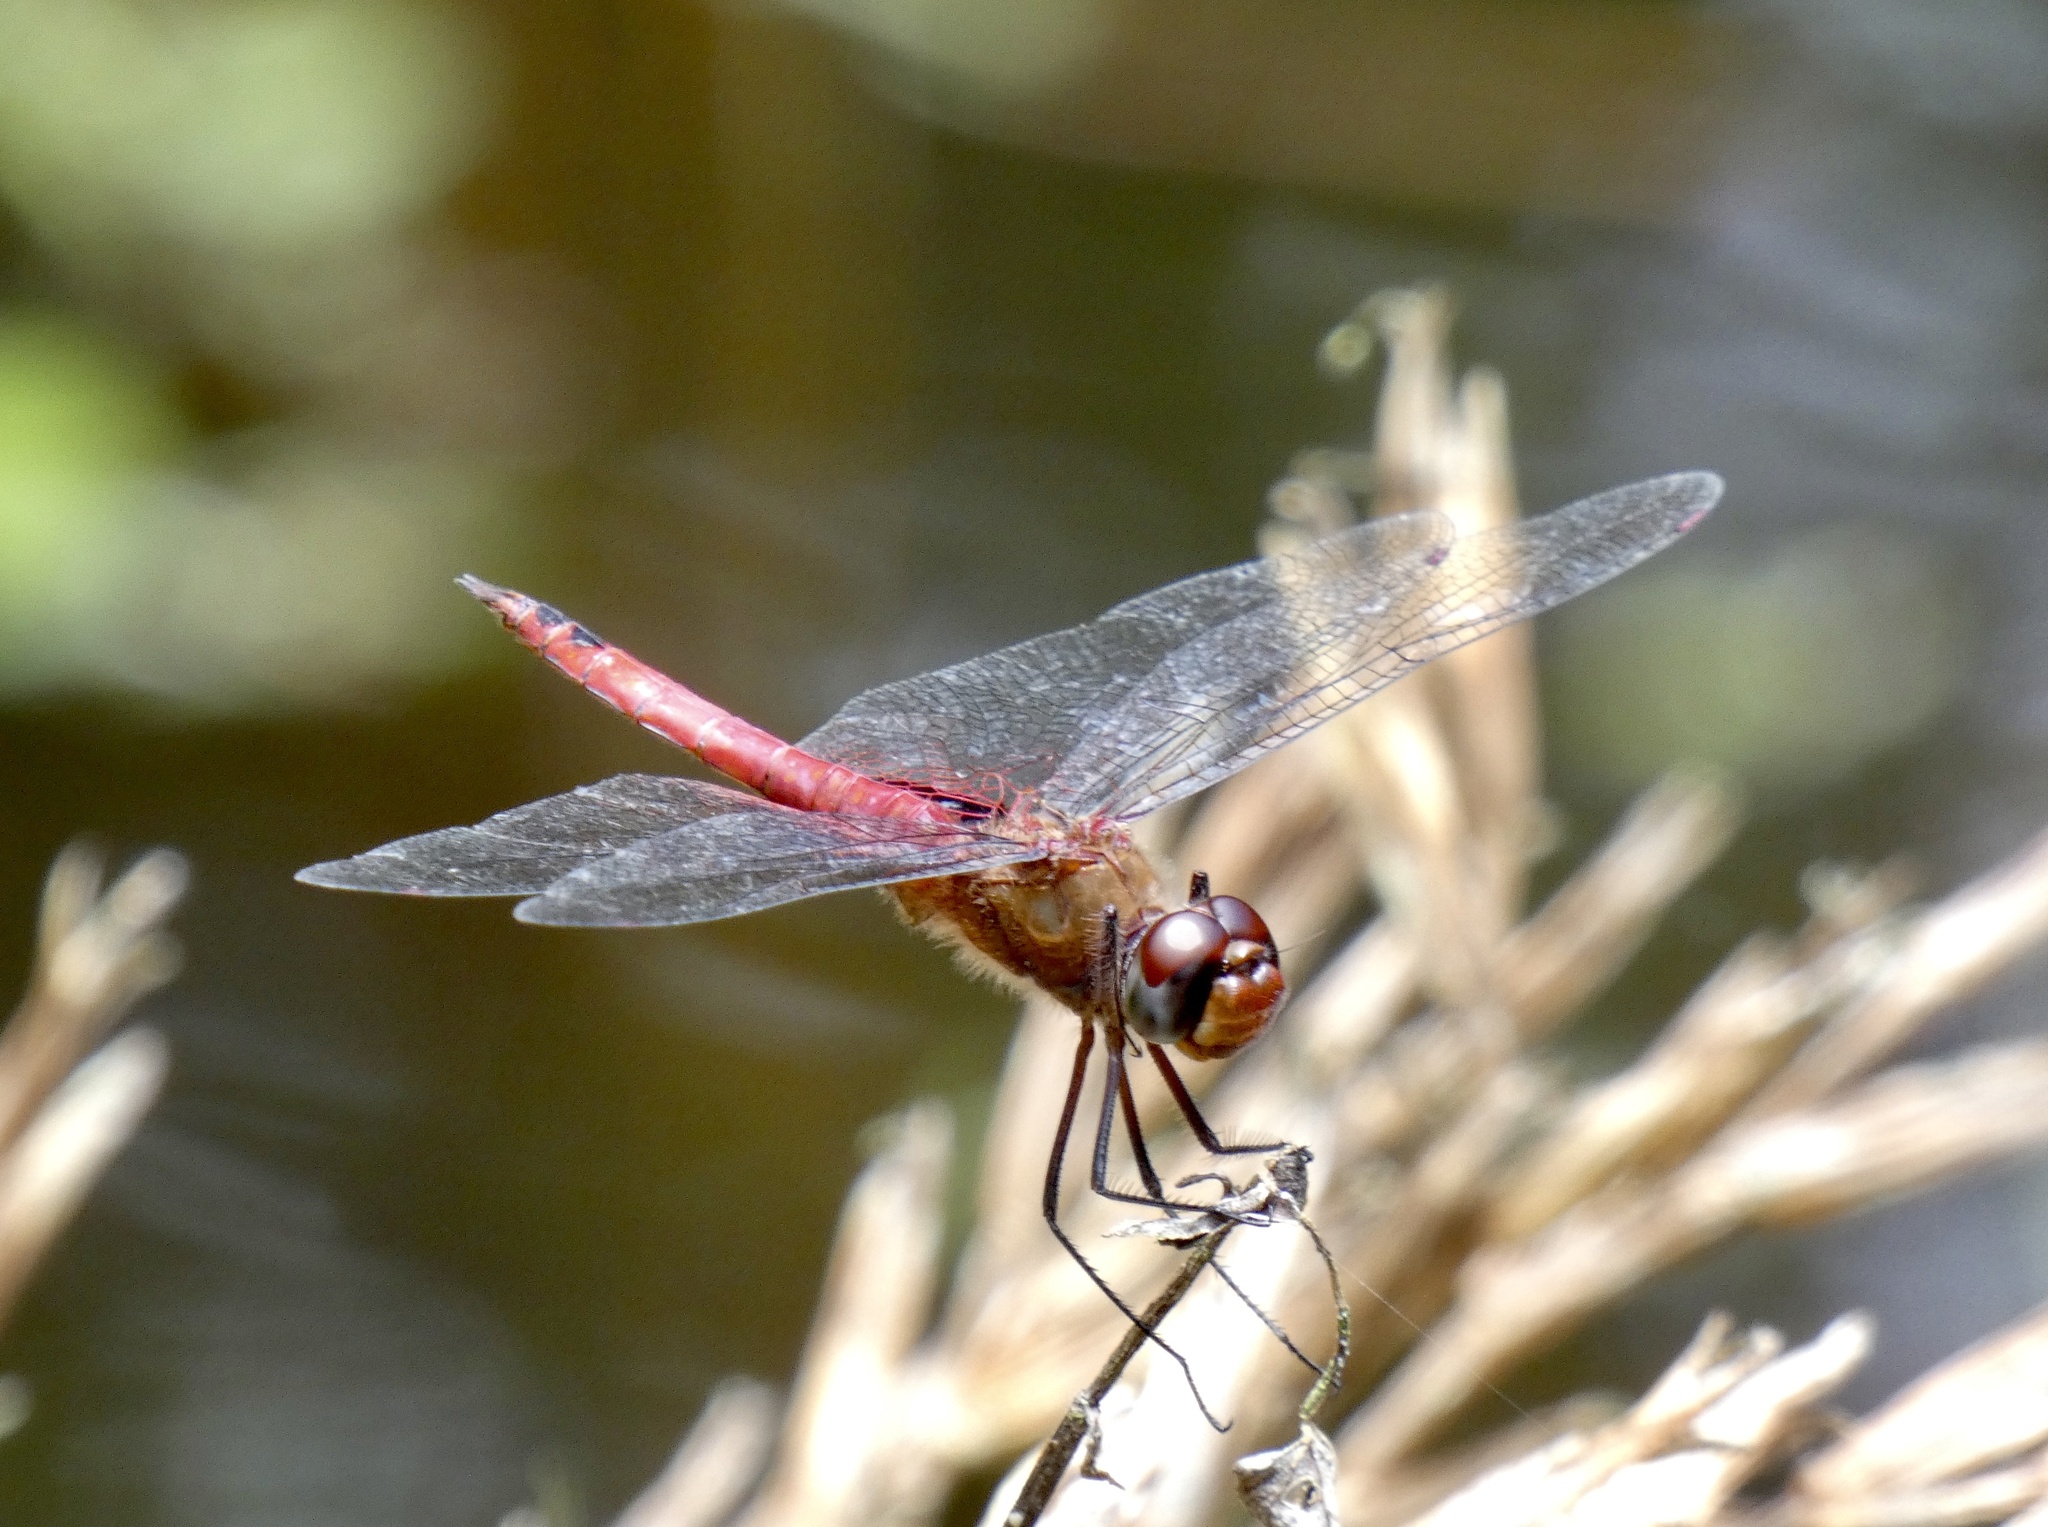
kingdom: Animalia
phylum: Arthropoda
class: Insecta
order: Odonata
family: Libellulidae
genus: Brachymesia
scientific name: Brachymesia furcata
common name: Red-taled pennant
